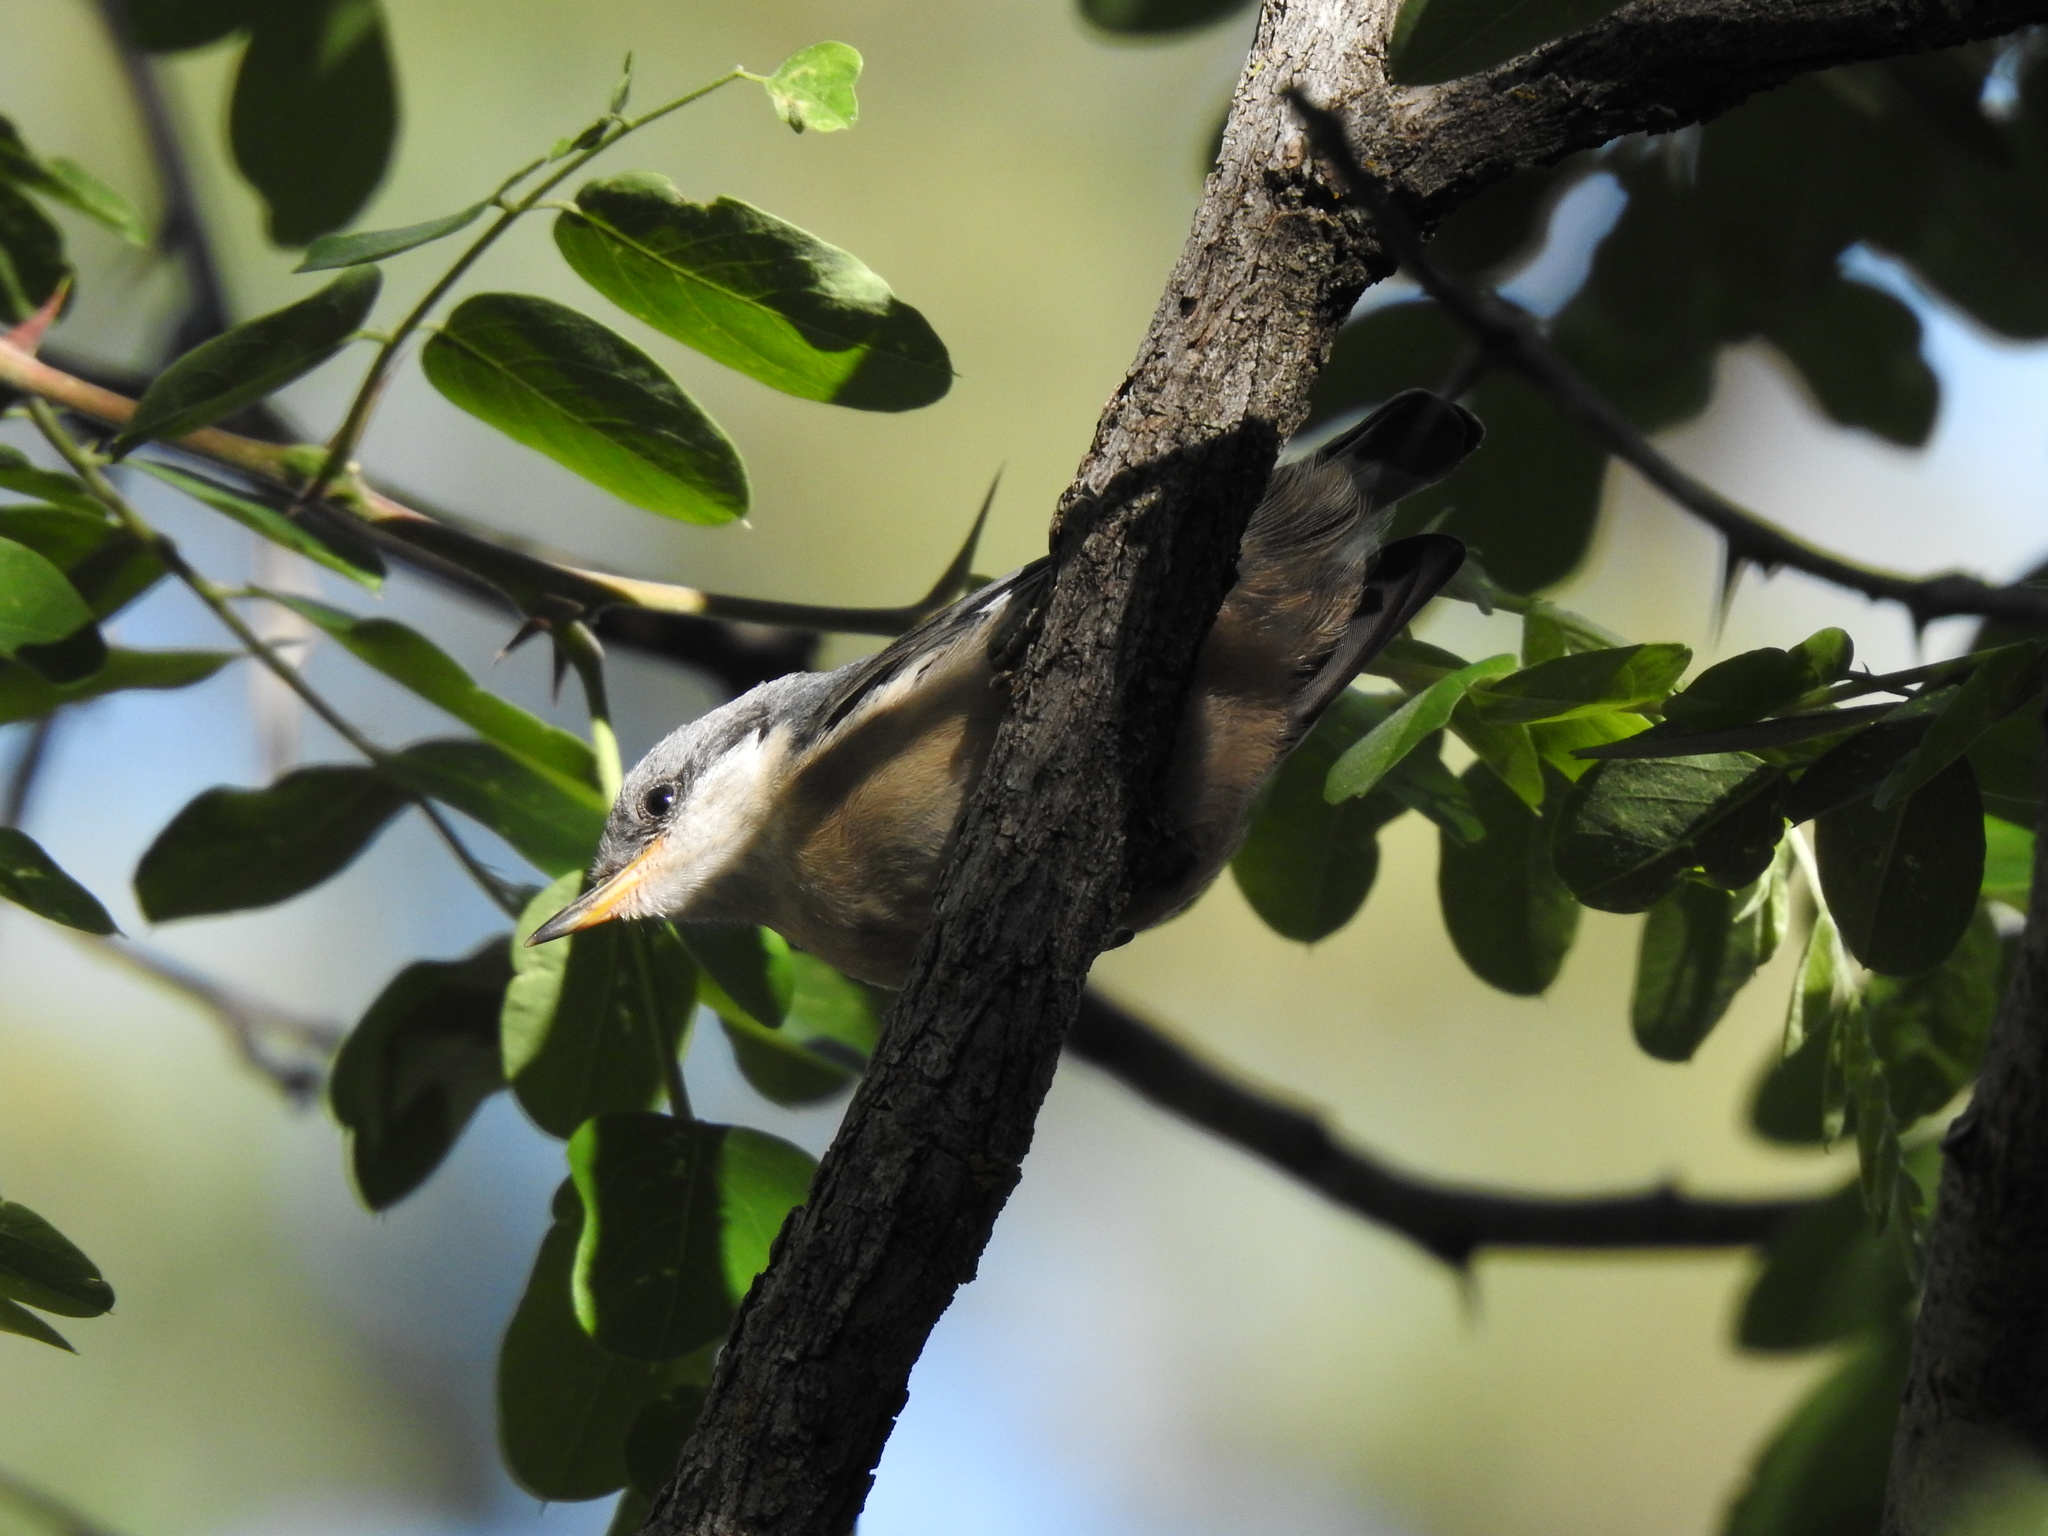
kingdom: Animalia
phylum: Chordata
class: Aves
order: Passeriformes
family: Sittidae
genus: Sitta
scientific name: Sitta pygmaea
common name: Pygmy nuthatch
